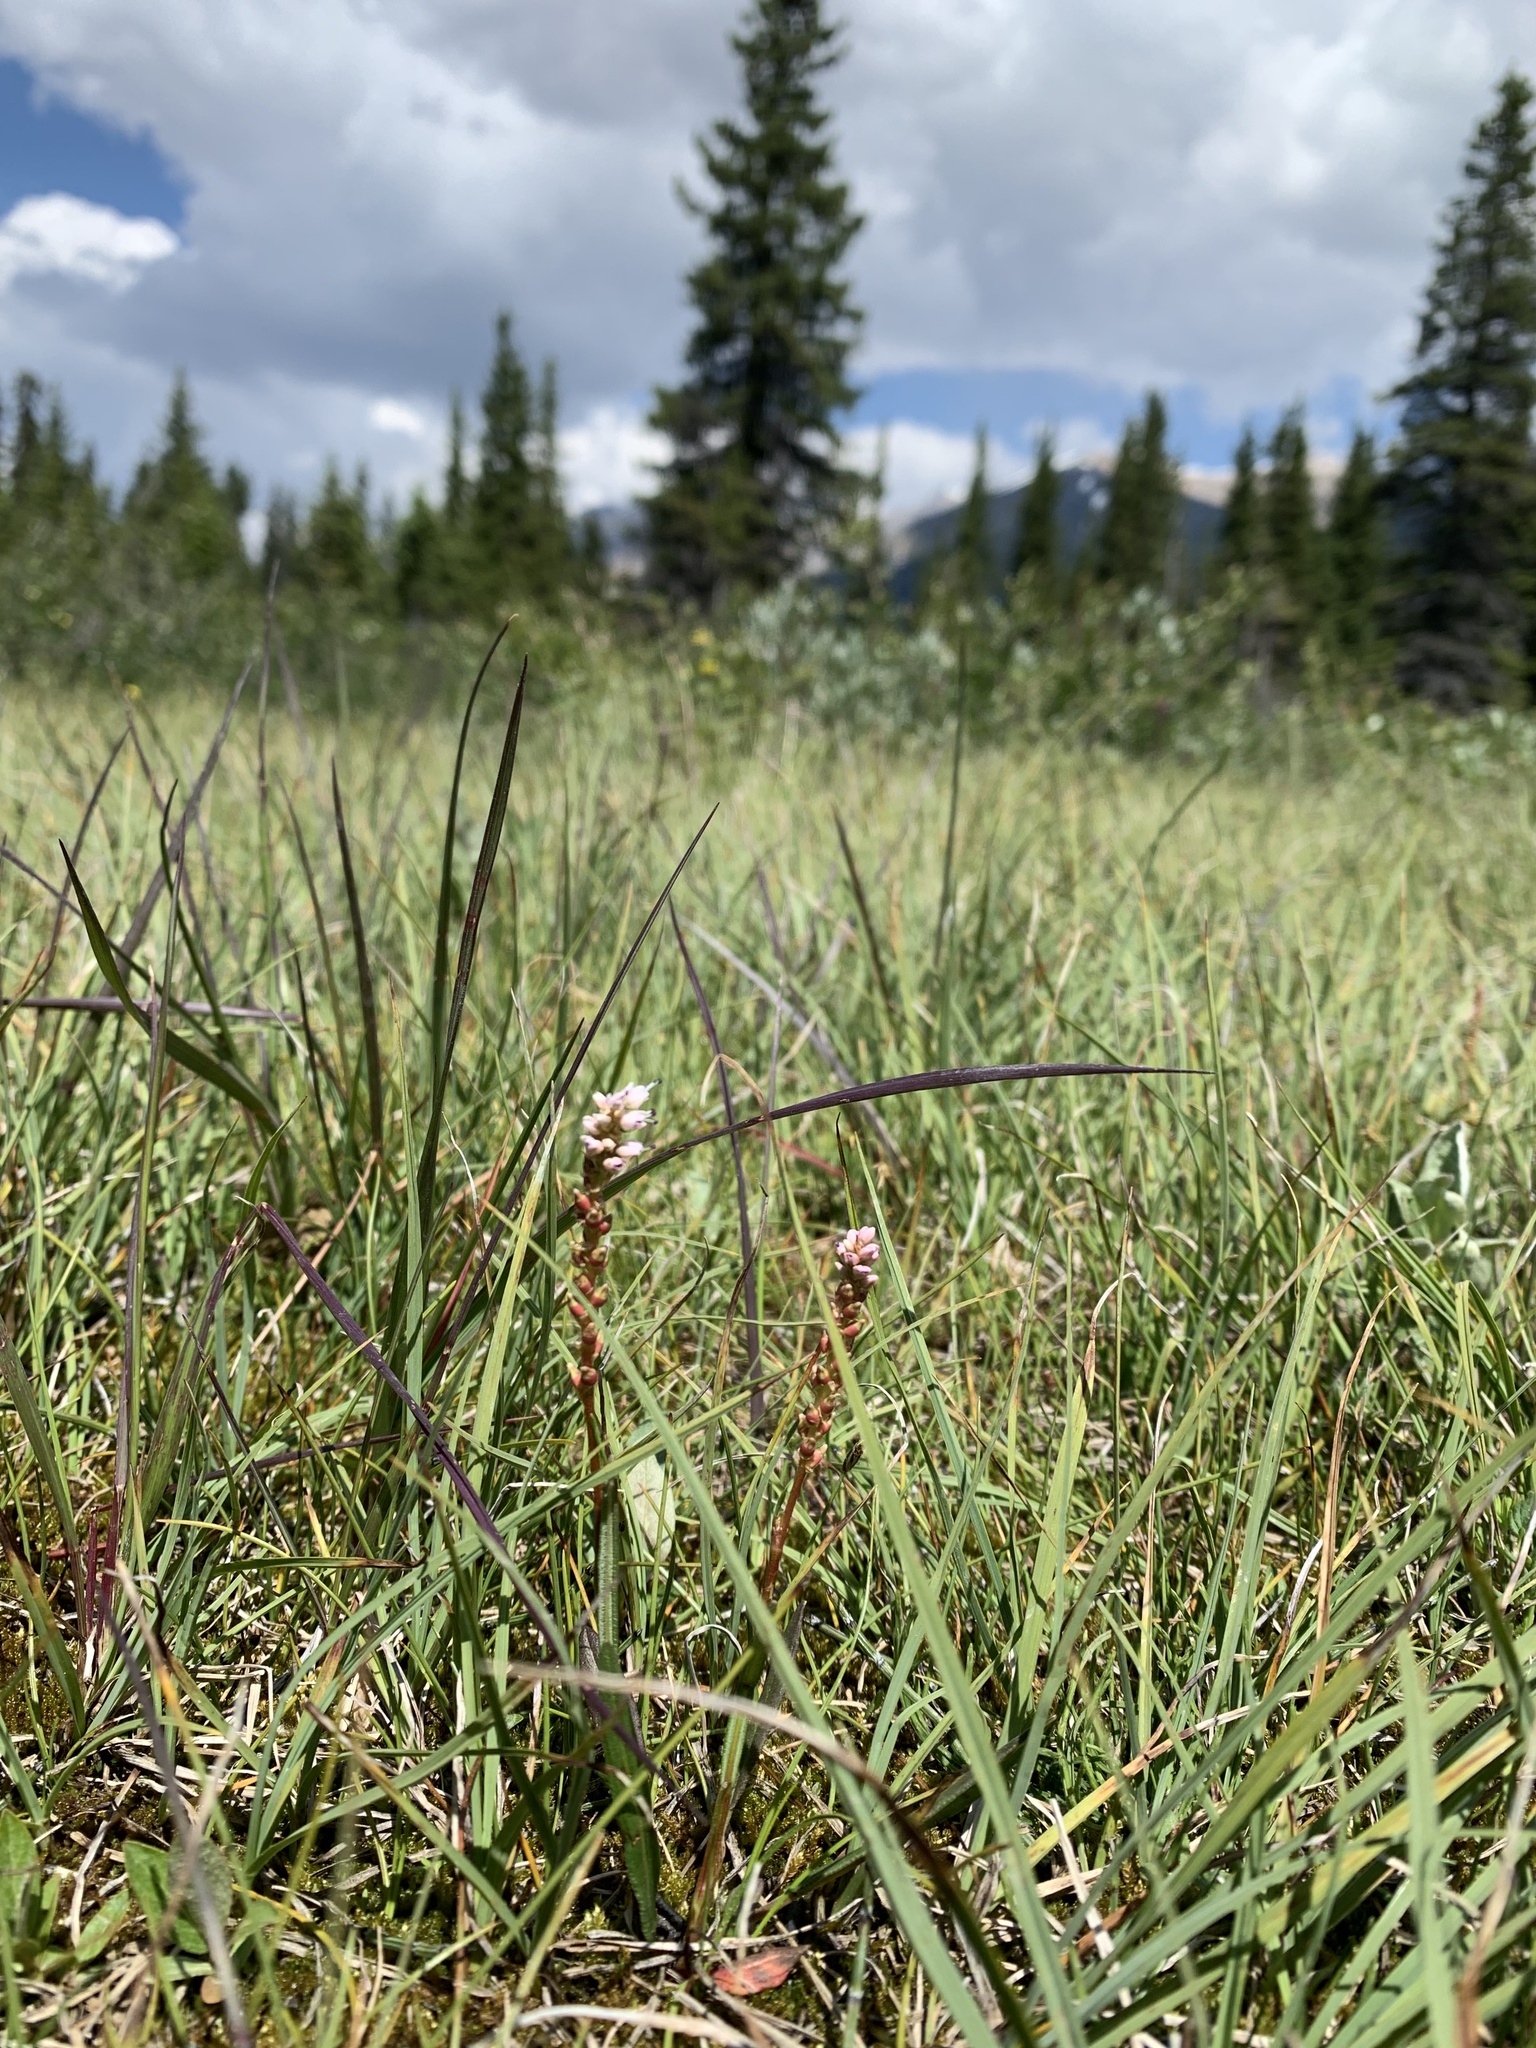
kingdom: Plantae
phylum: Tracheophyta
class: Magnoliopsida
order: Caryophyllales
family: Polygonaceae
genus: Bistorta
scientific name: Bistorta vivipara
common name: Alpine bistort
